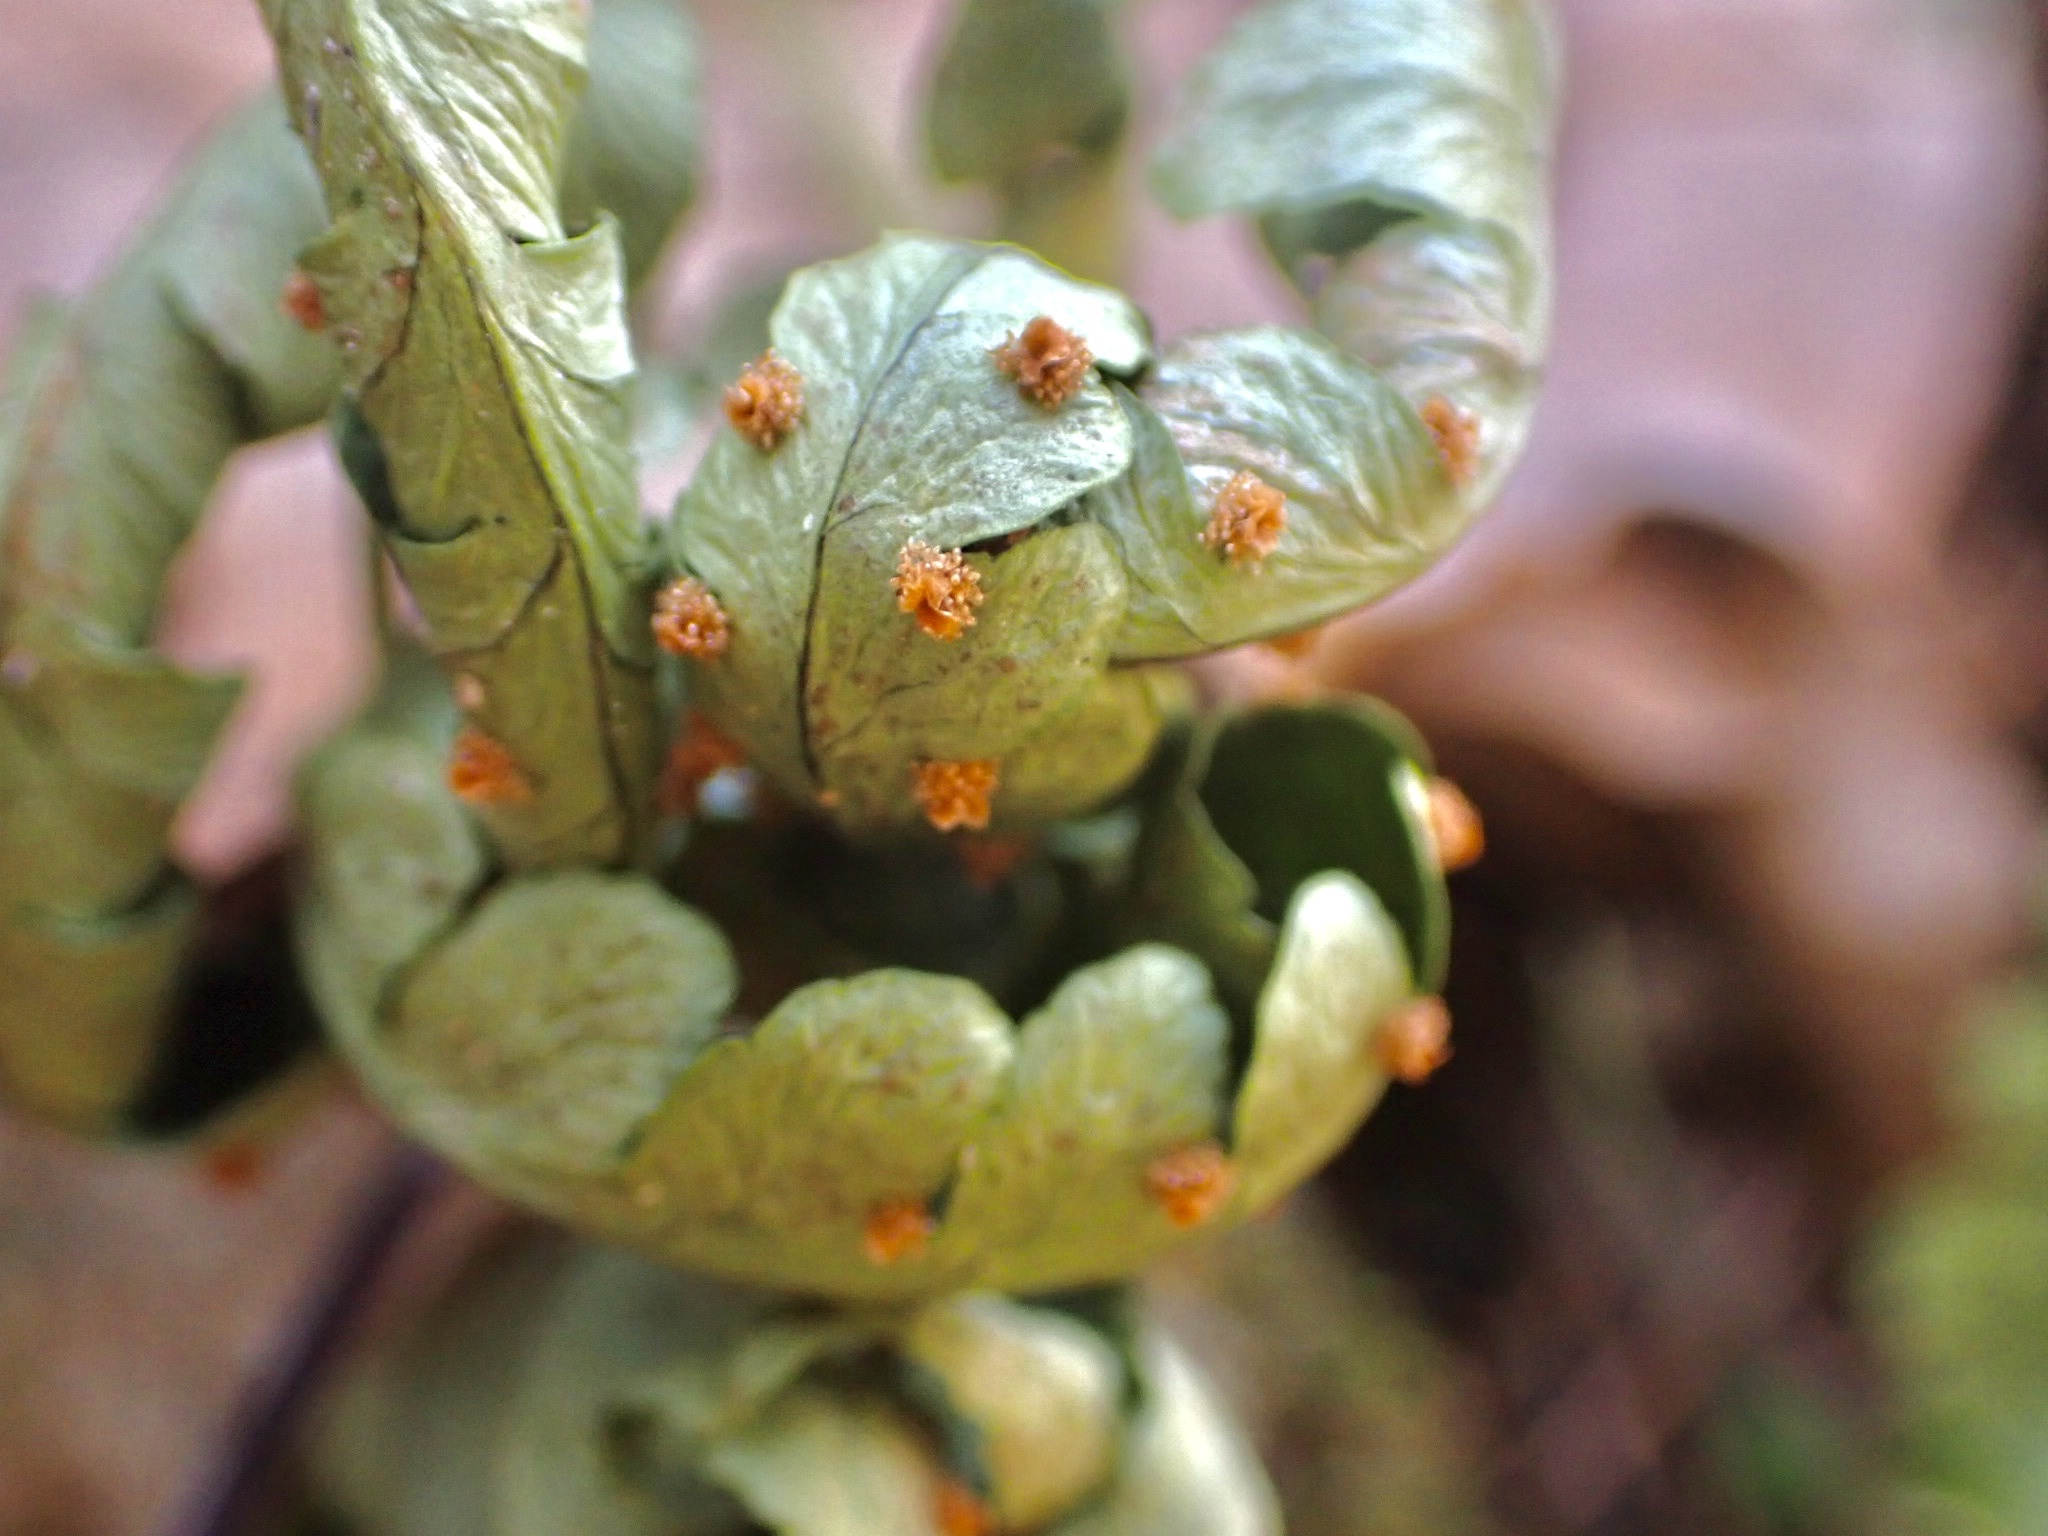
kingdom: Plantae
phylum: Tracheophyta
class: Polypodiopsida
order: Polypodiales
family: Dryopteridaceae
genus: Dryopteris
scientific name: Dryopteris marginalis
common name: Marginal wood fern
